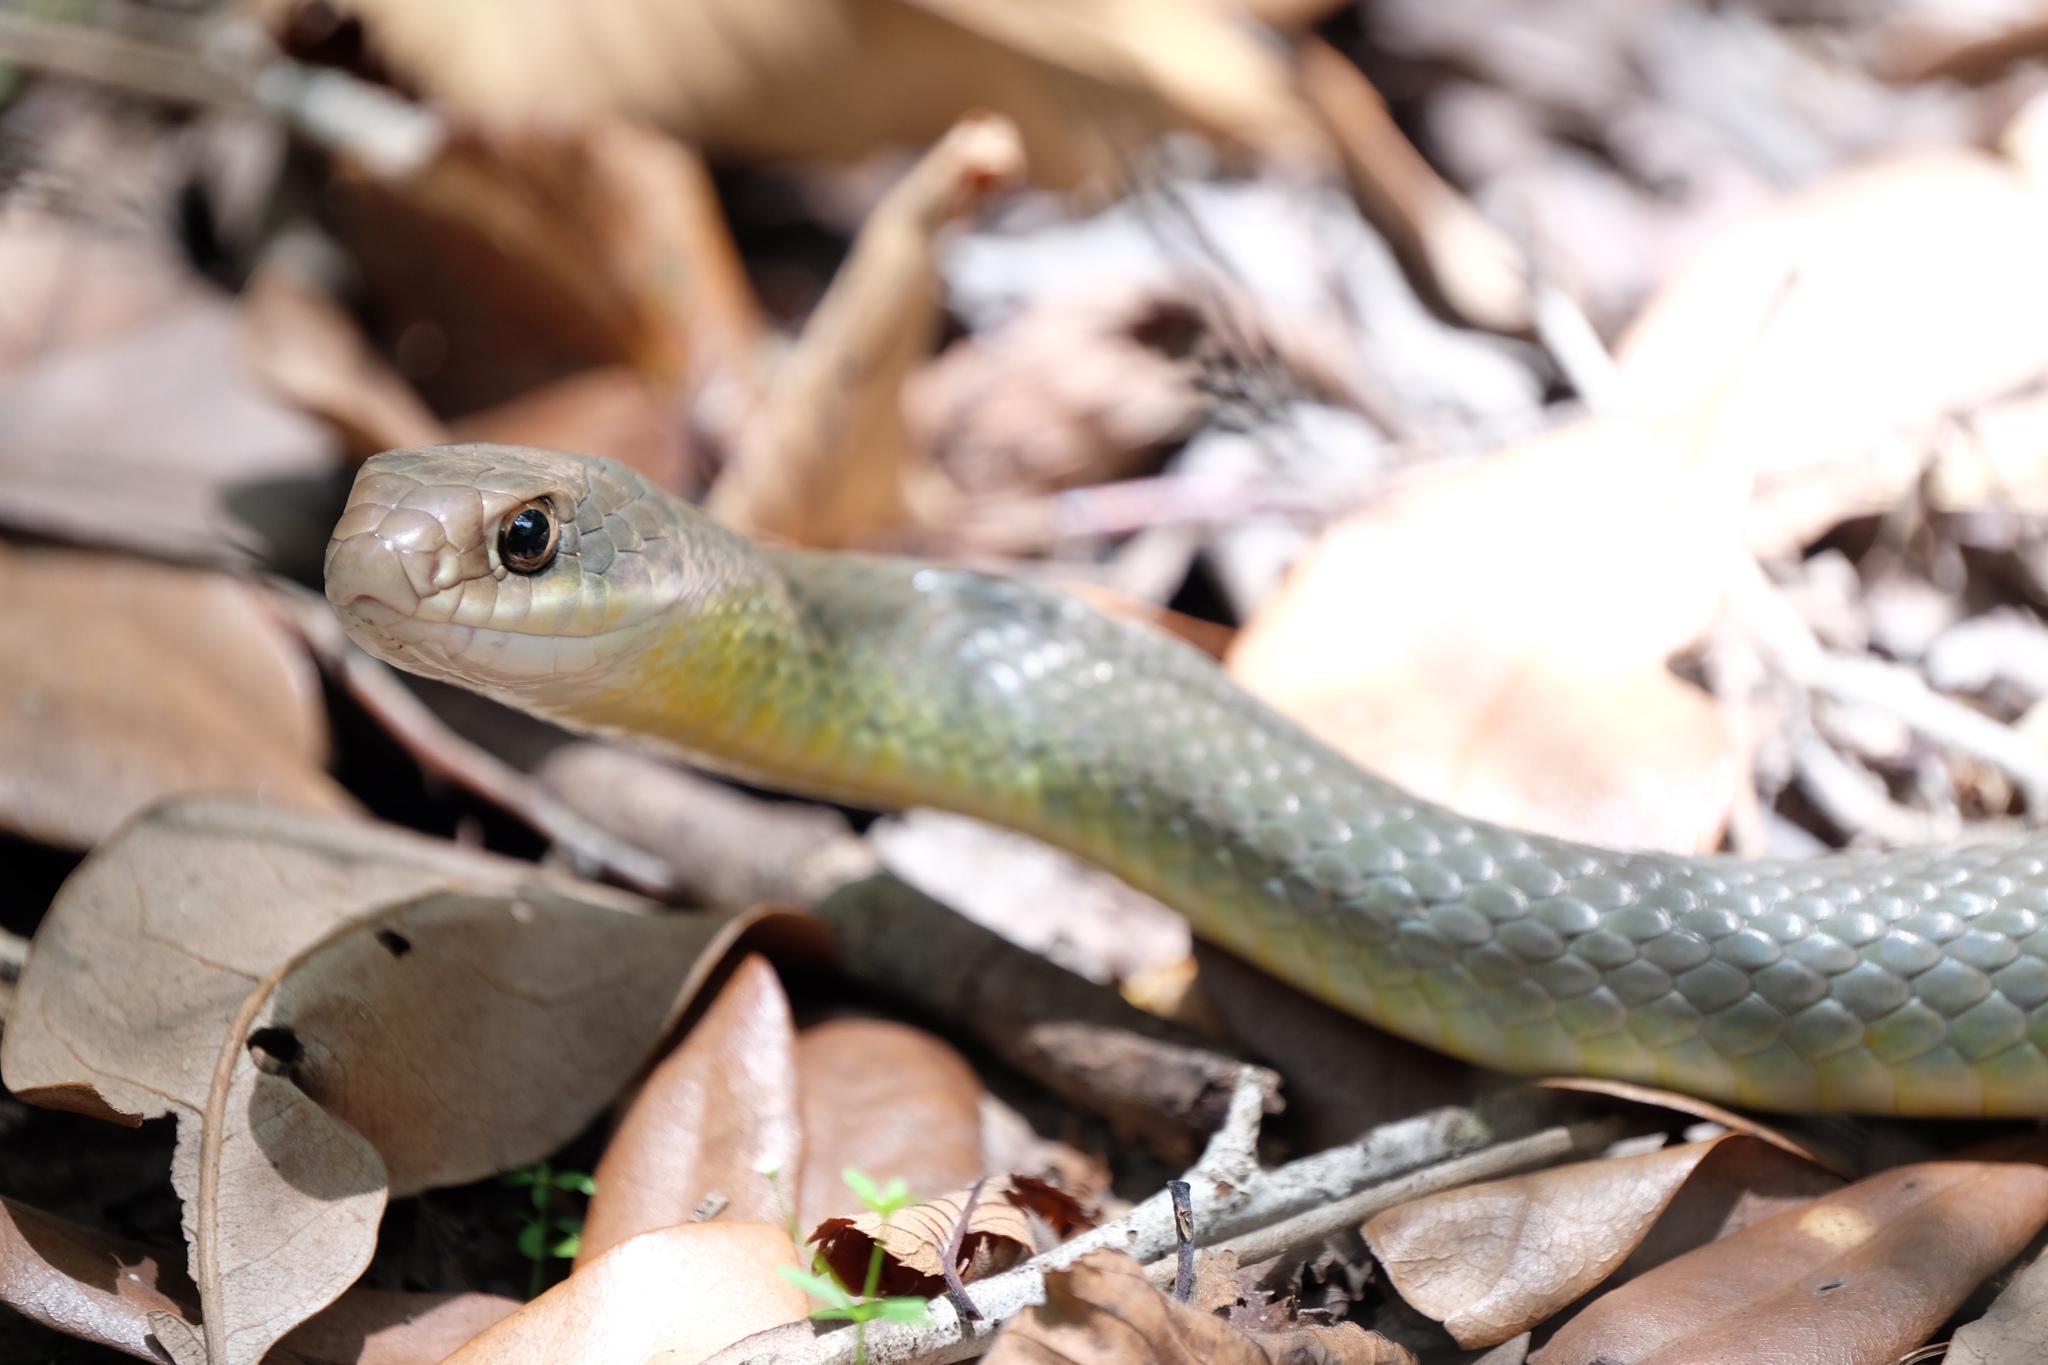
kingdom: Animalia
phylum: Chordata
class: Squamata
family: Colubridae
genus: Coluber
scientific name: Coluber constrictor
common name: Eastern racer
